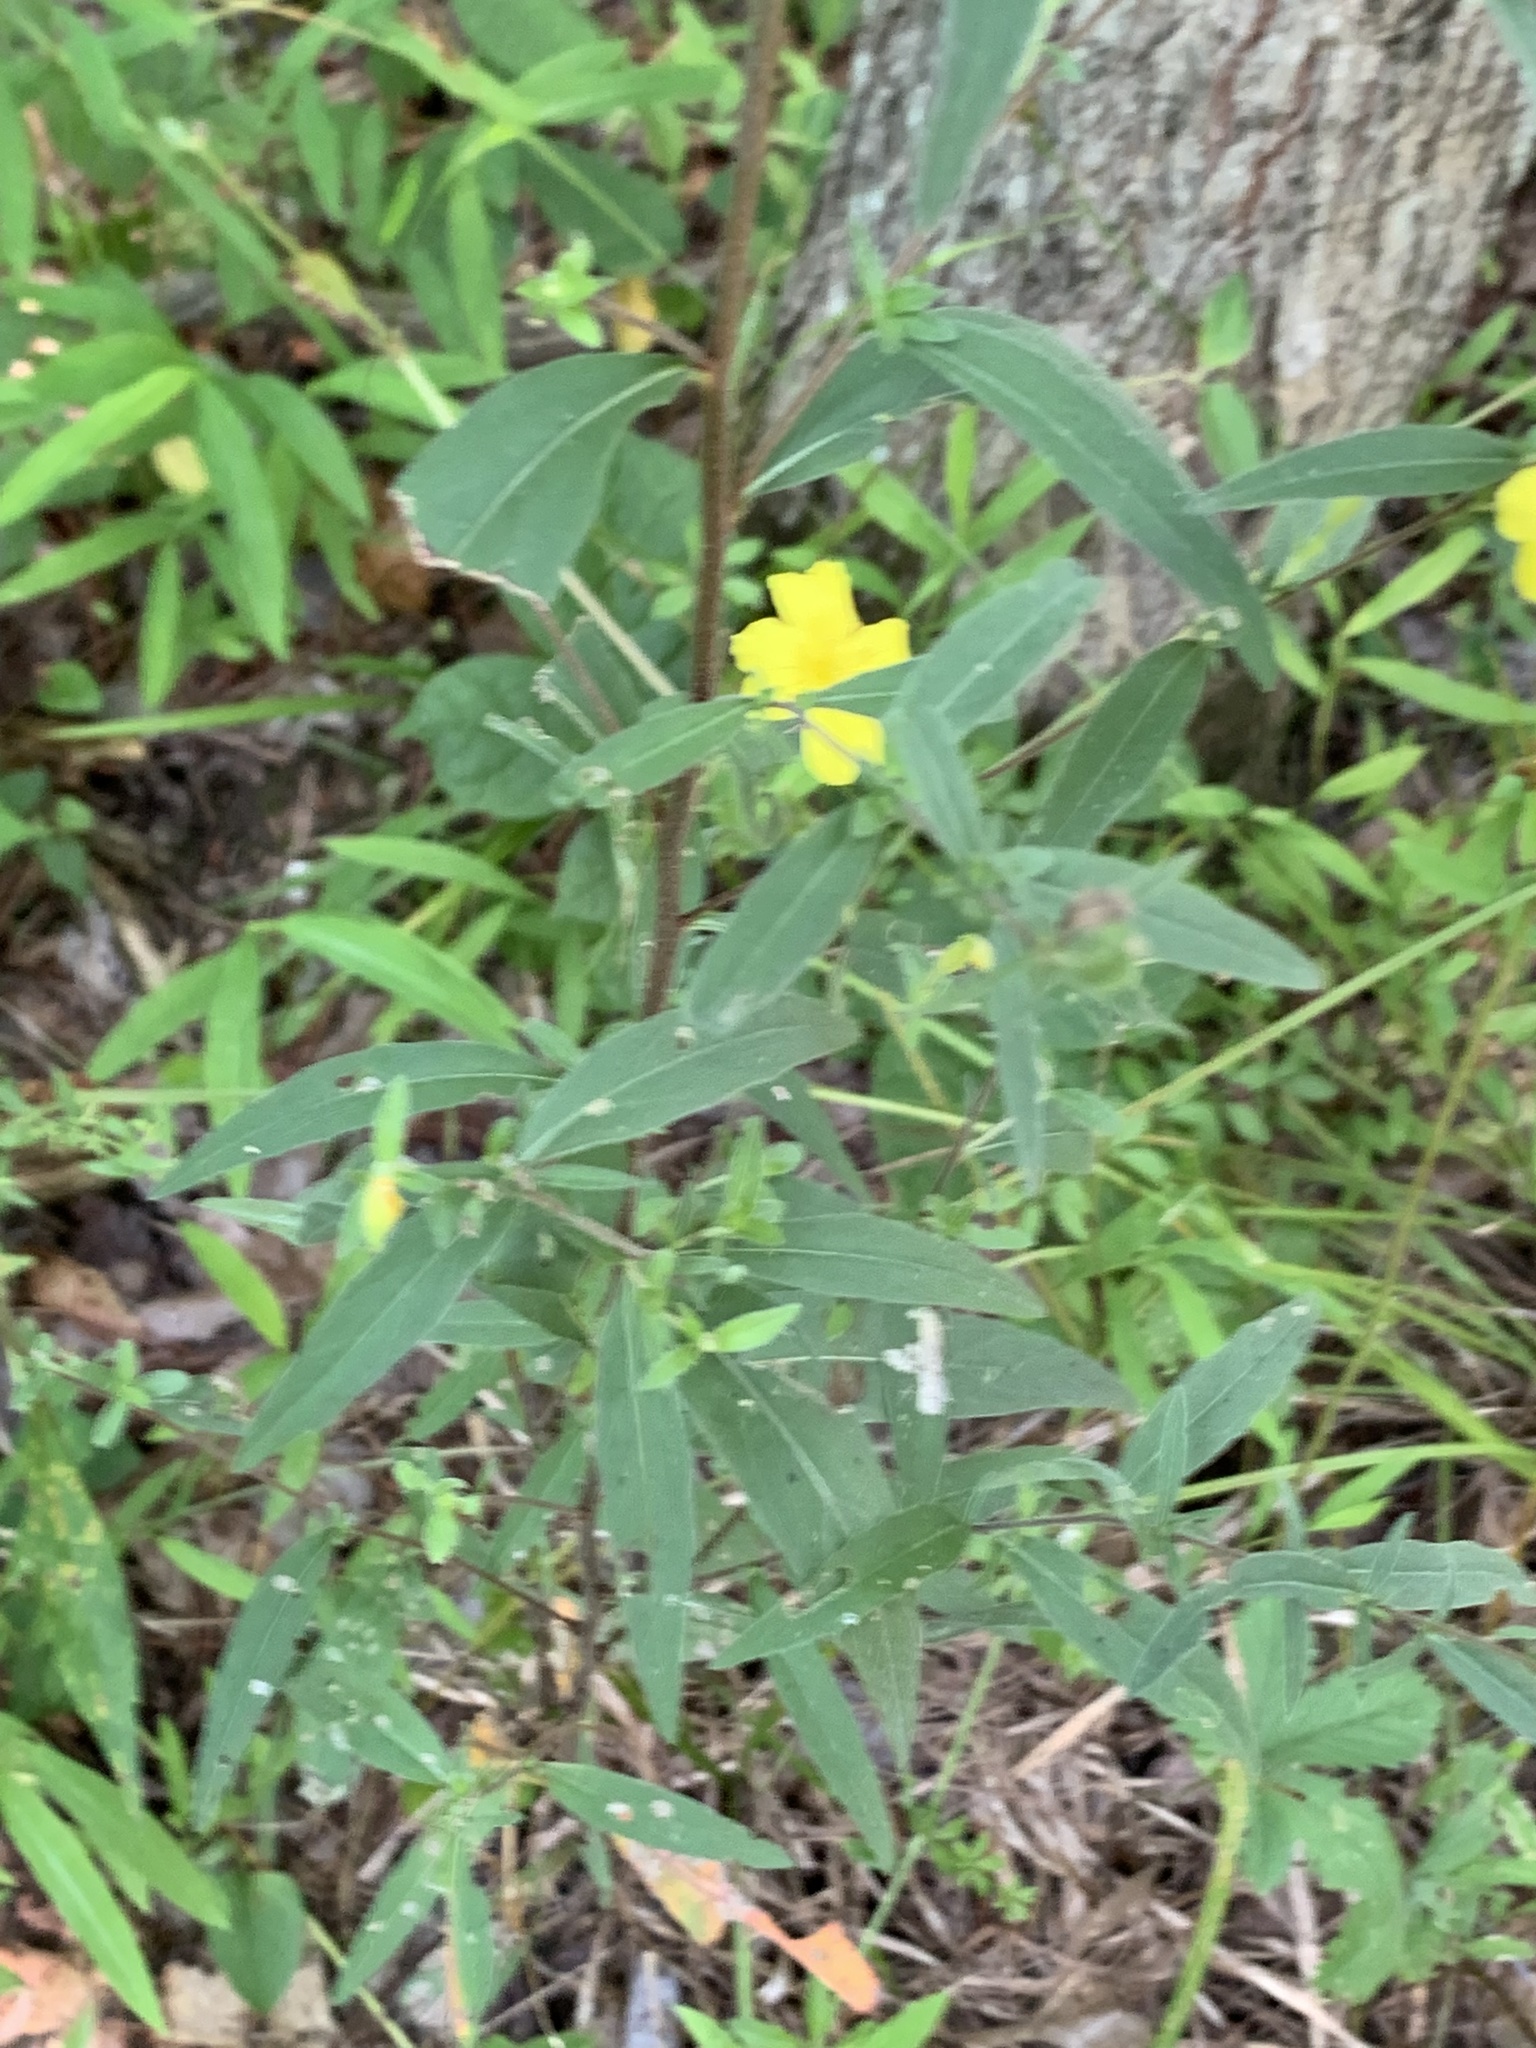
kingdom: Plantae
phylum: Tracheophyta
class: Magnoliopsida
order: Myrtales
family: Onagraceae
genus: Oenothera
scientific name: Oenothera fruticosa
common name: Southern sundrops
